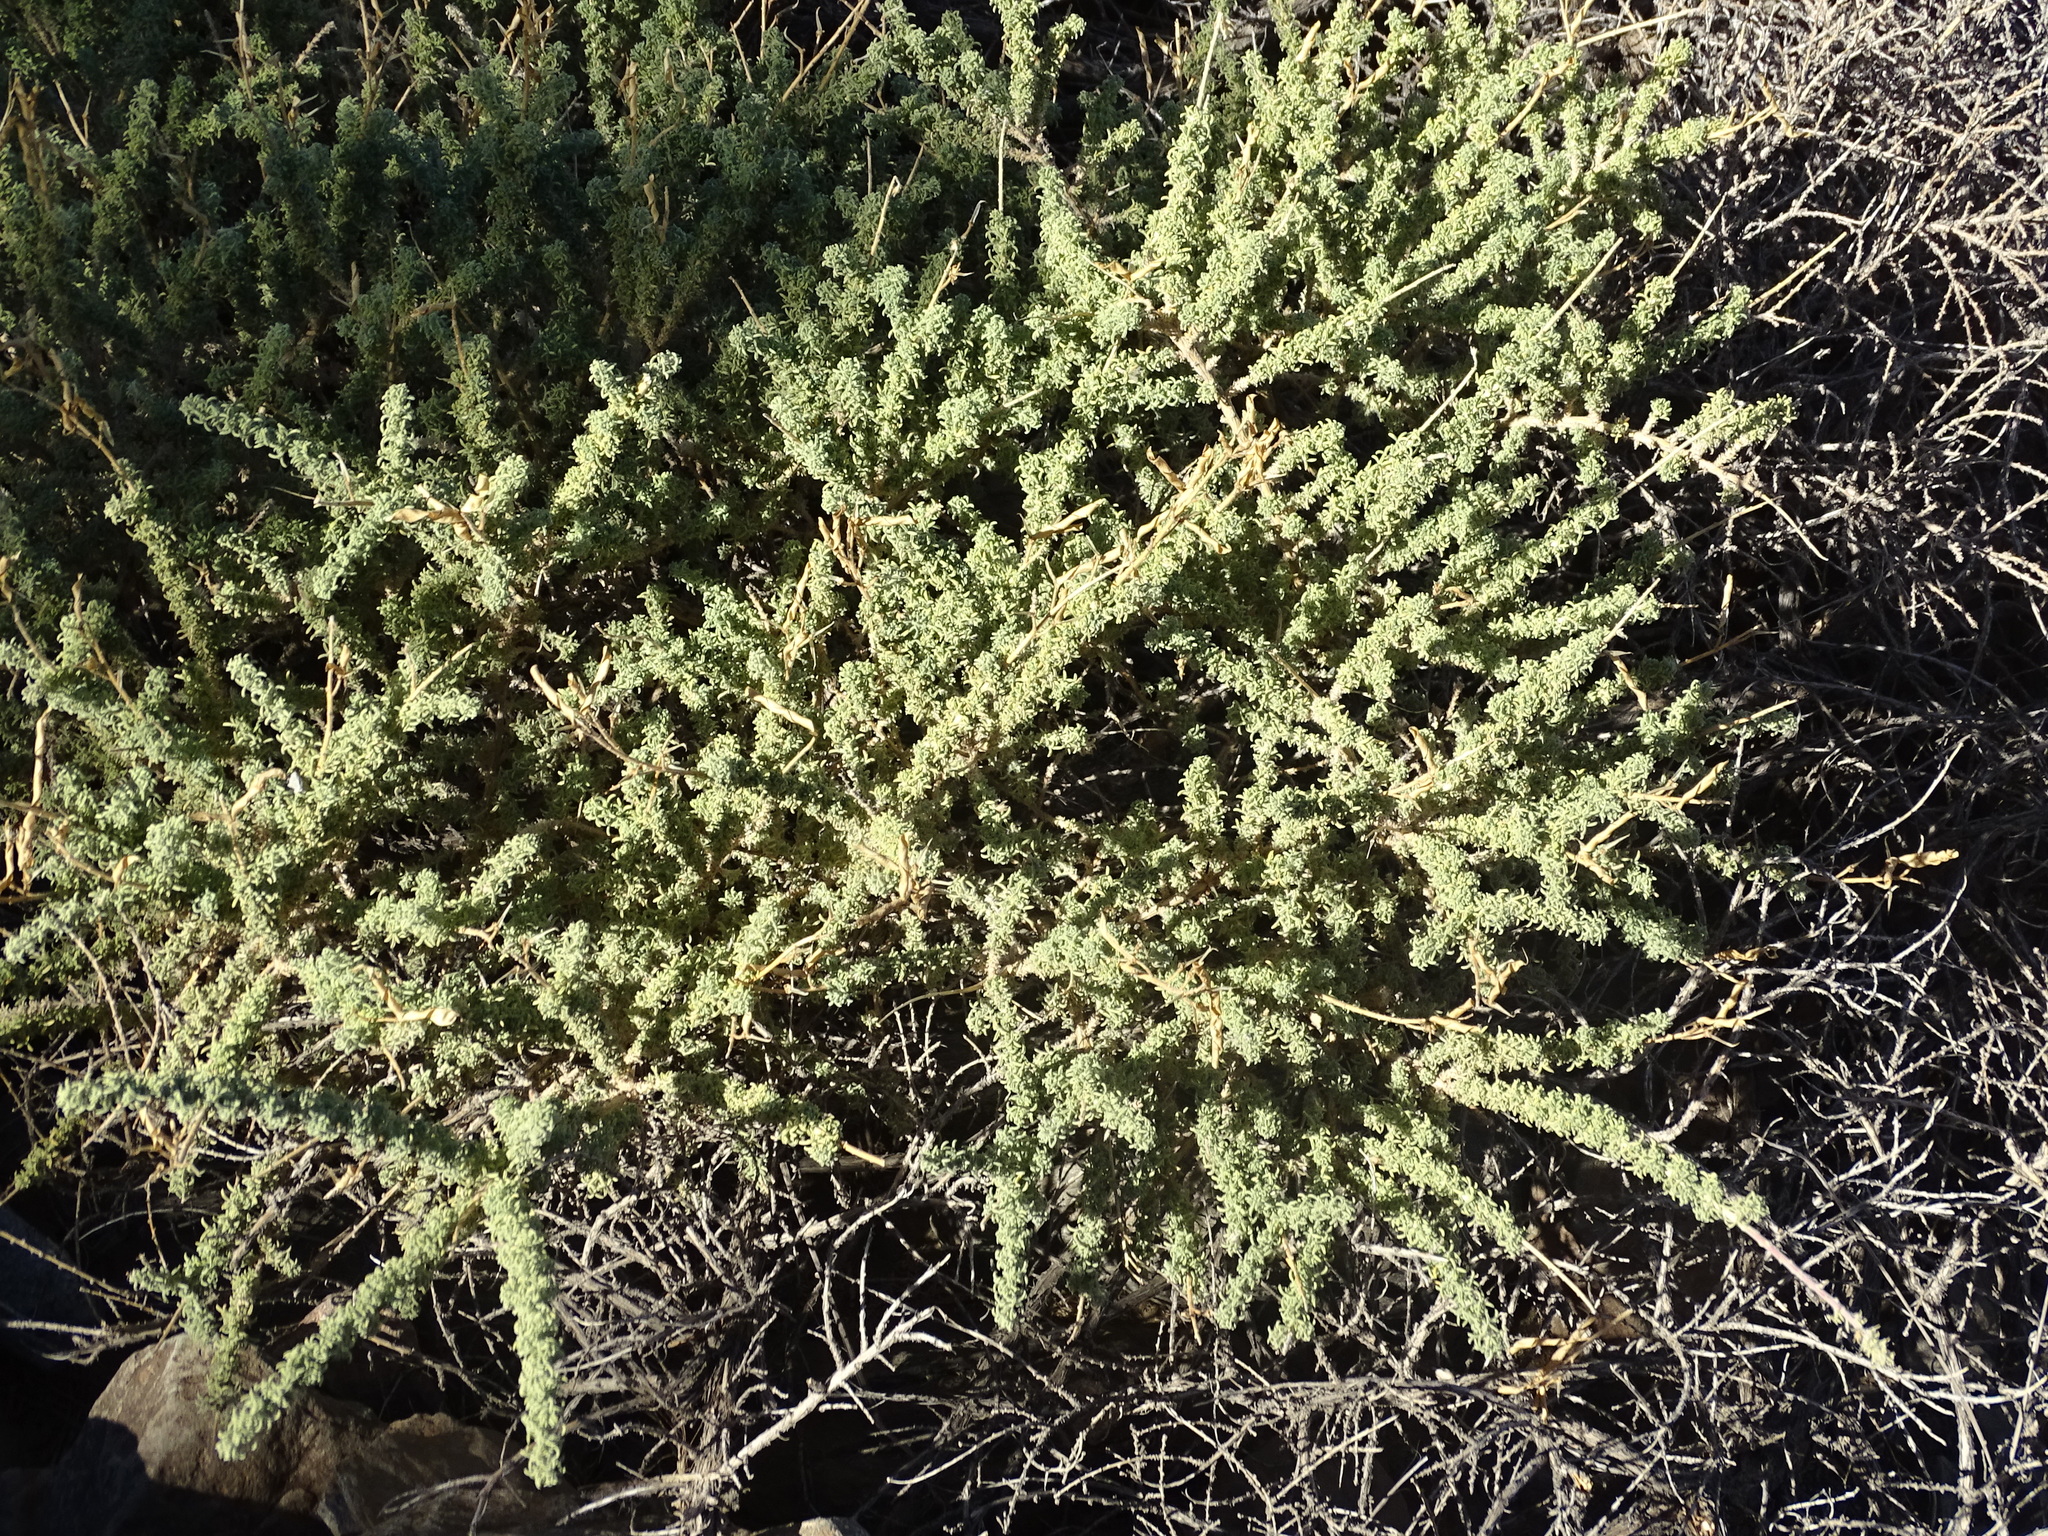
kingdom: Plantae
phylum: Tracheophyta
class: Magnoliopsida
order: Fabales
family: Fabaceae
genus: Adenocarpus
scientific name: Adenocarpus viscosus
